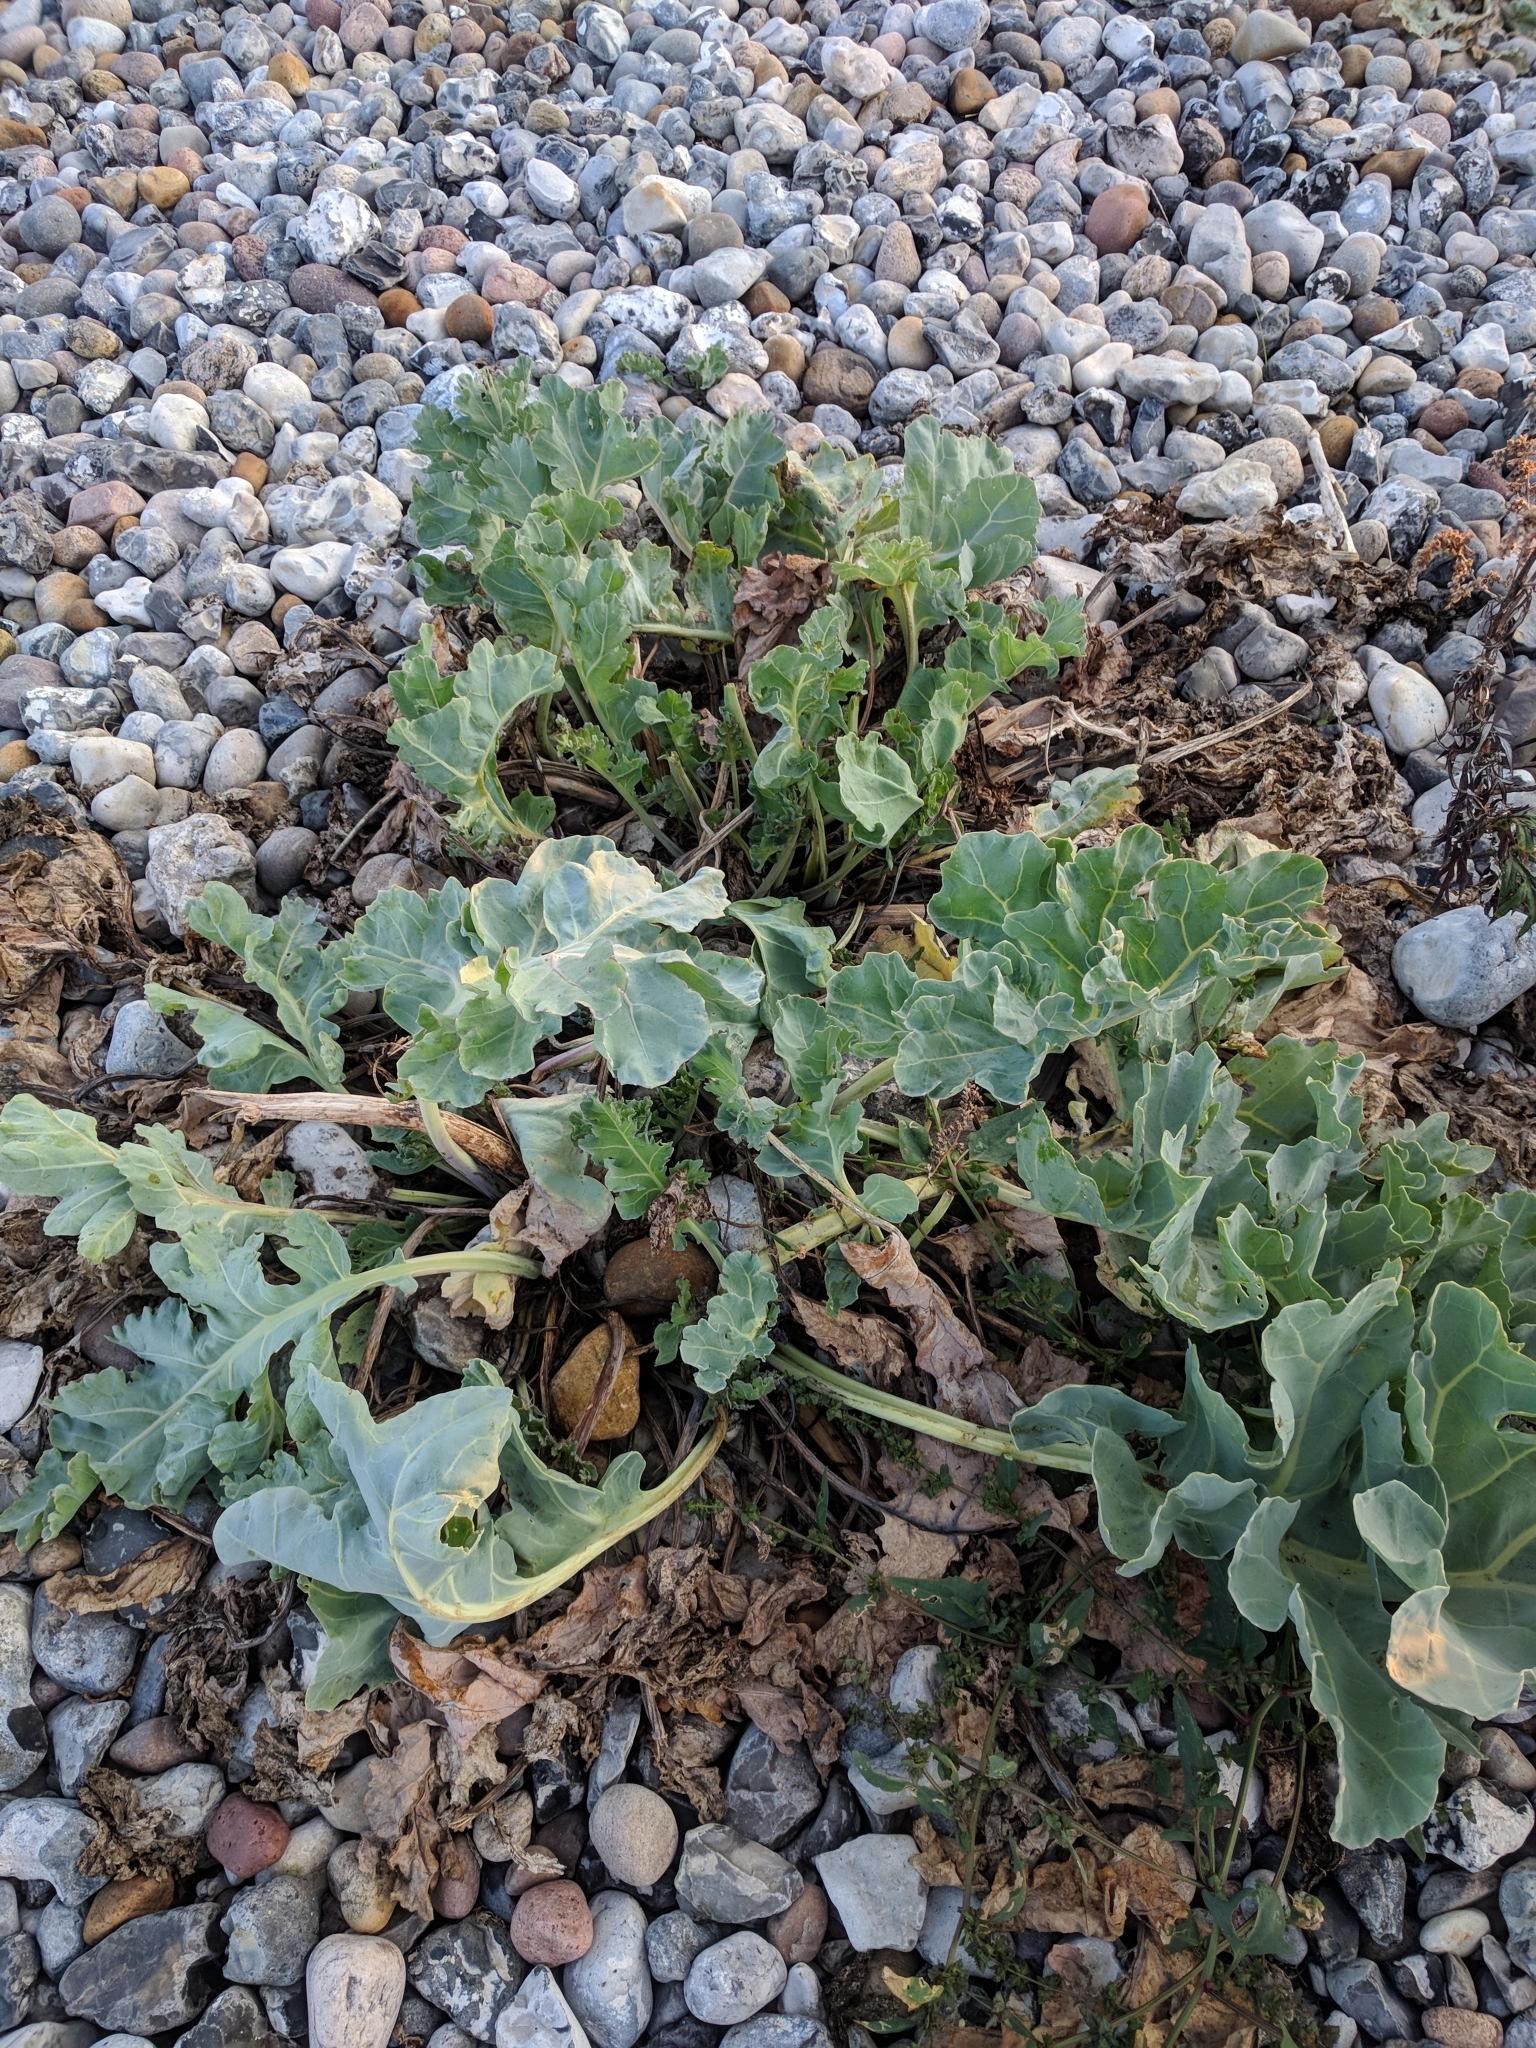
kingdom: Plantae
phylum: Tracheophyta
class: Magnoliopsida
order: Brassicales
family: Brassicaceae
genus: Crambe
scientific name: Crambe maritima
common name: Sea-kale
